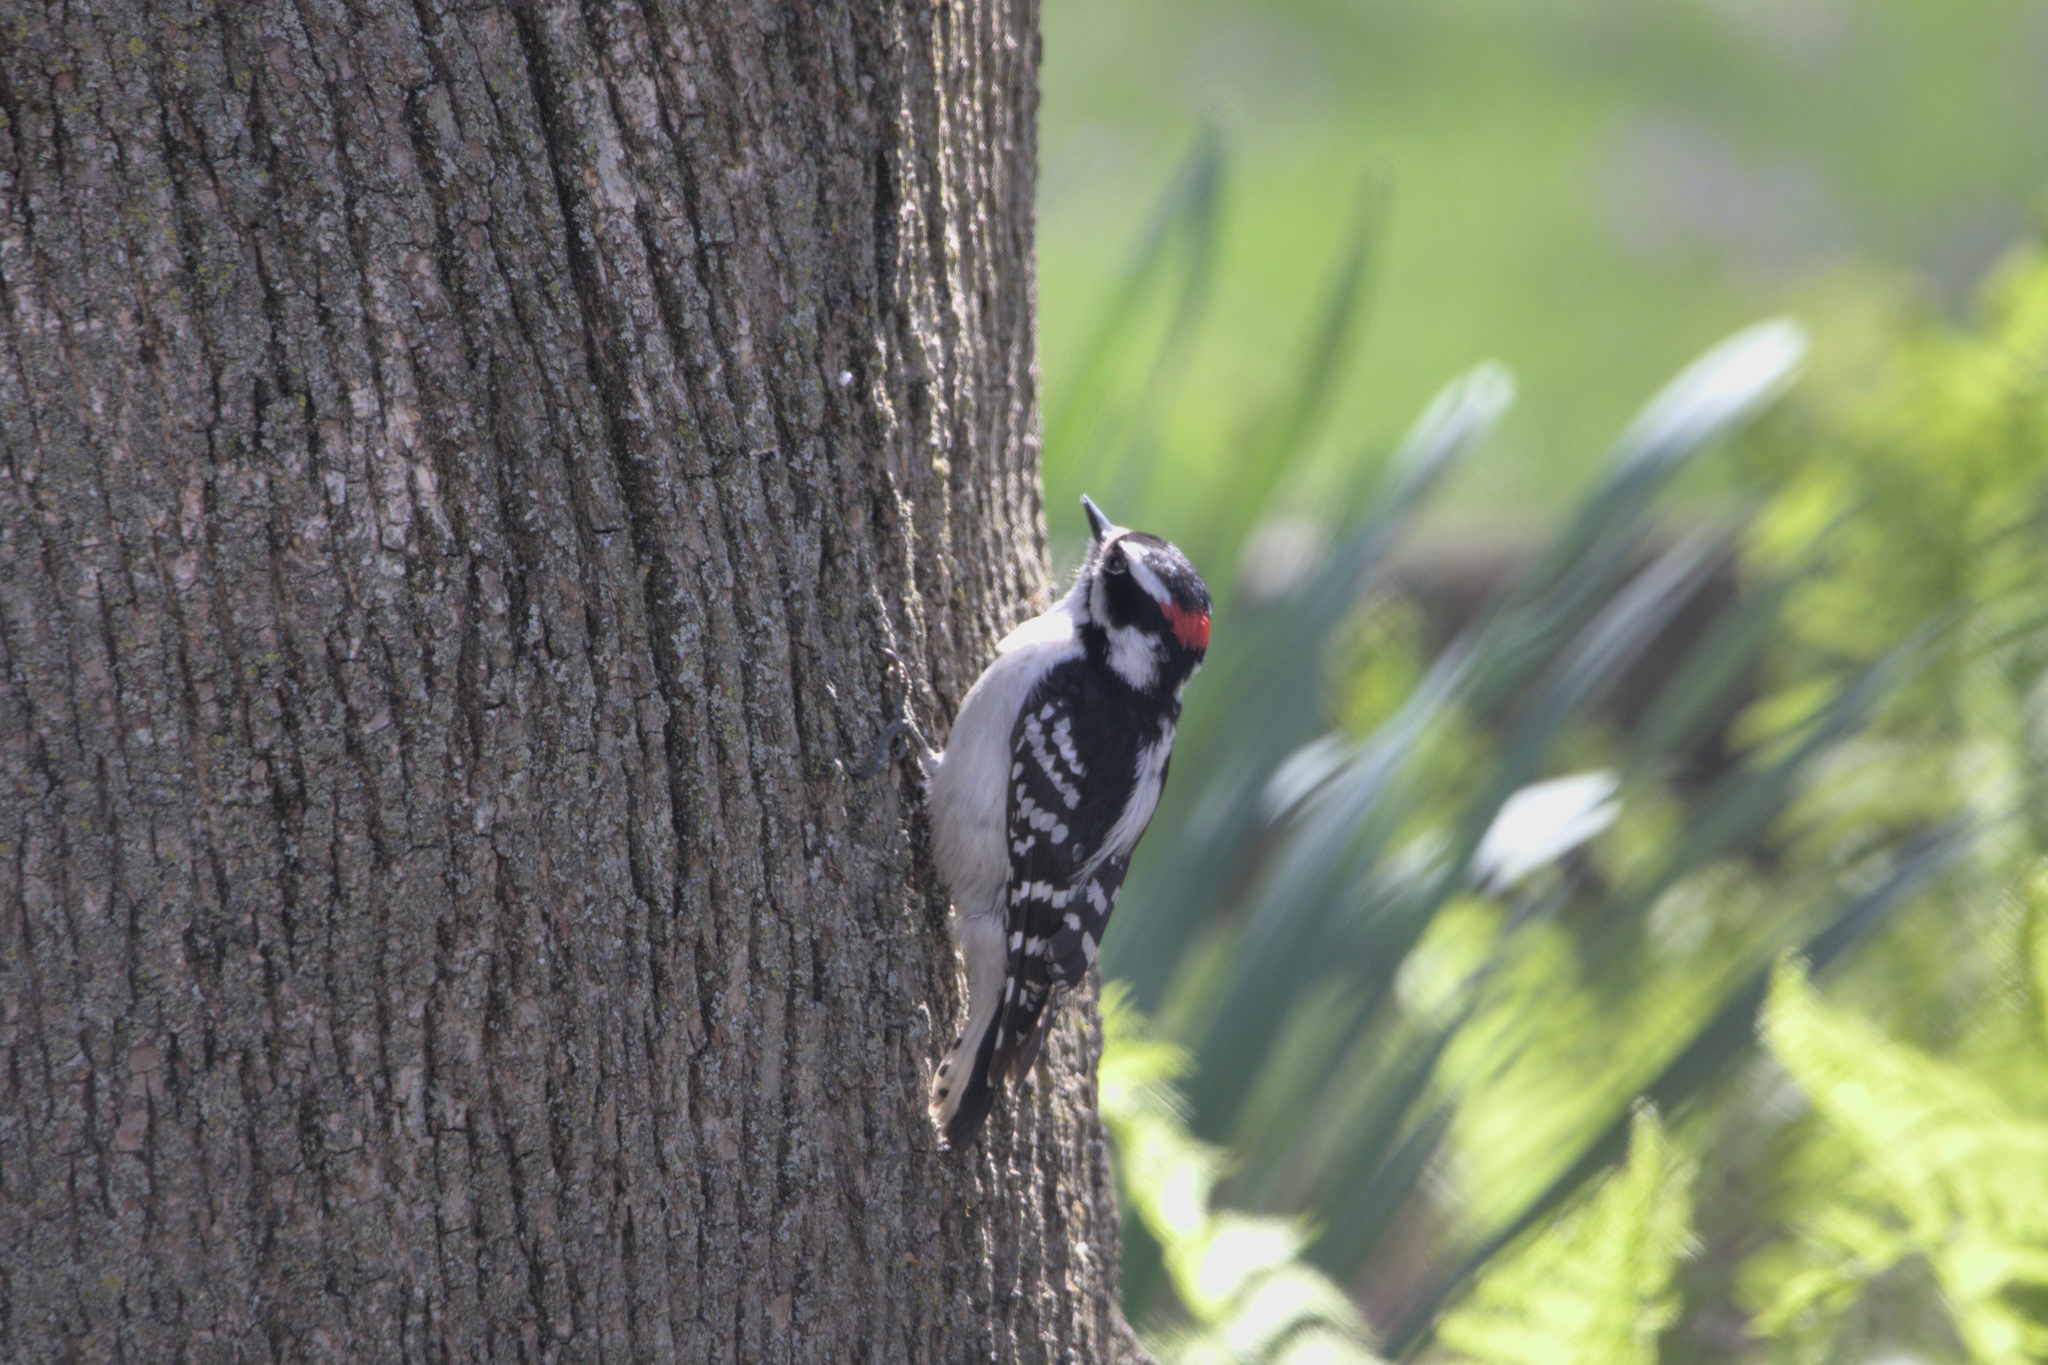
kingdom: Animalia
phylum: Chordata
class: Aves
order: Piciformes
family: Picidae
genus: Dryobates
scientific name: Dryobates pubescens
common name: Downy woodpecker
